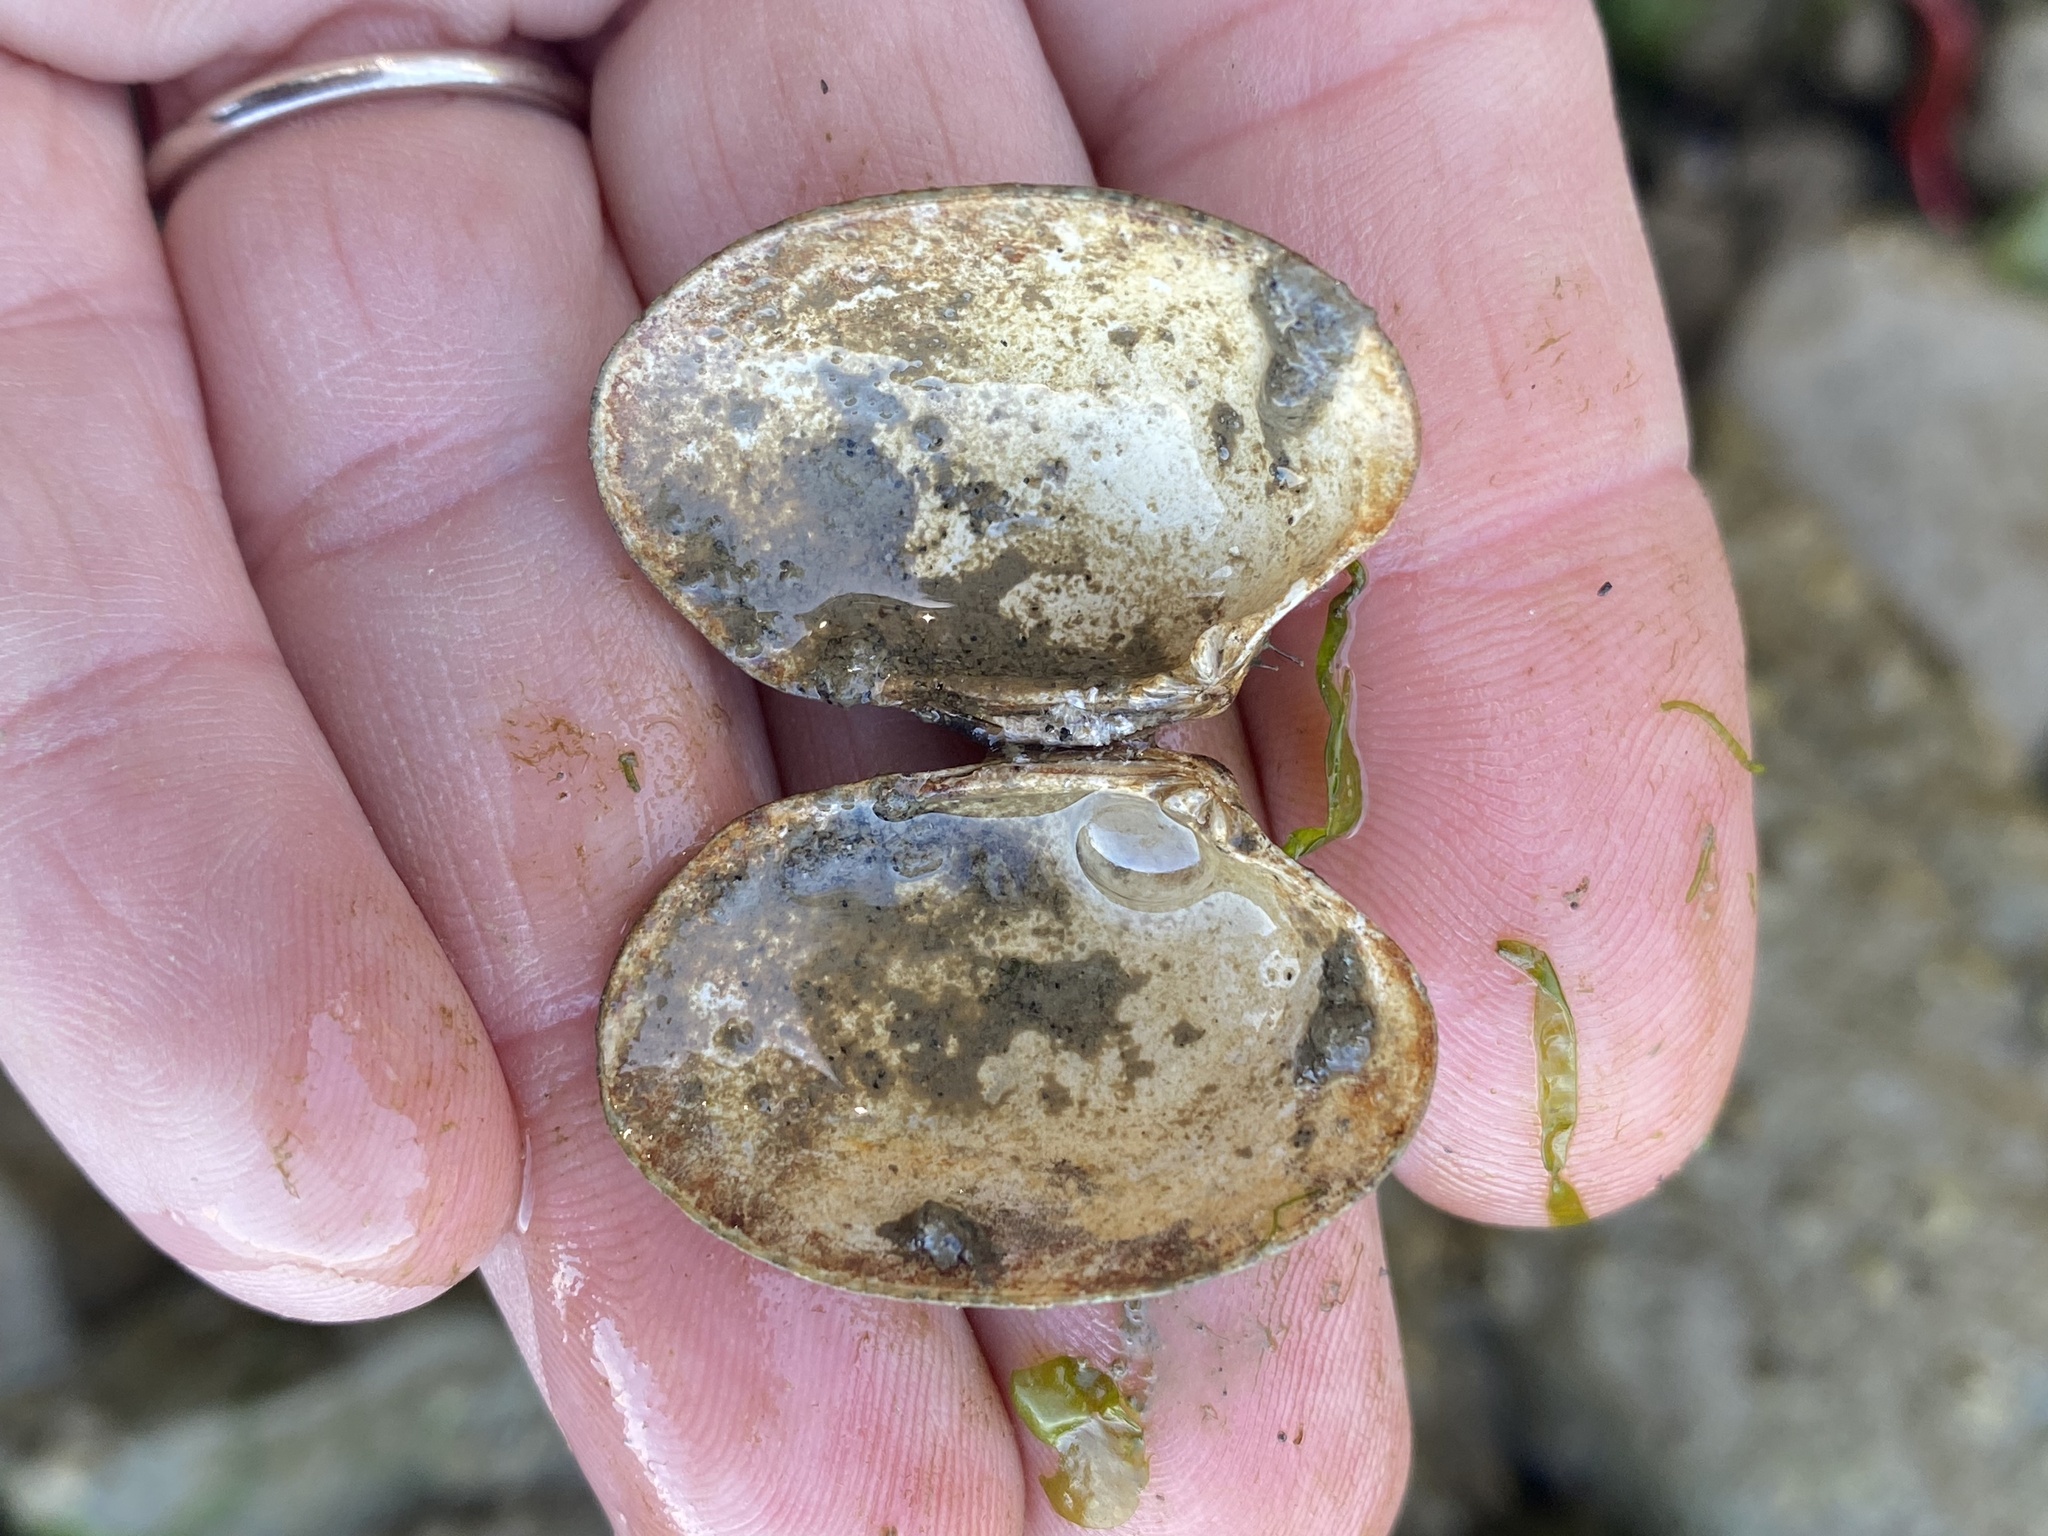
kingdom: Animalia
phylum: Mollusca
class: Bivalvia
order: Venerida
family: Veneridae
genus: Ruditapes
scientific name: Ruditapes philippinarum
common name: Manila clam
